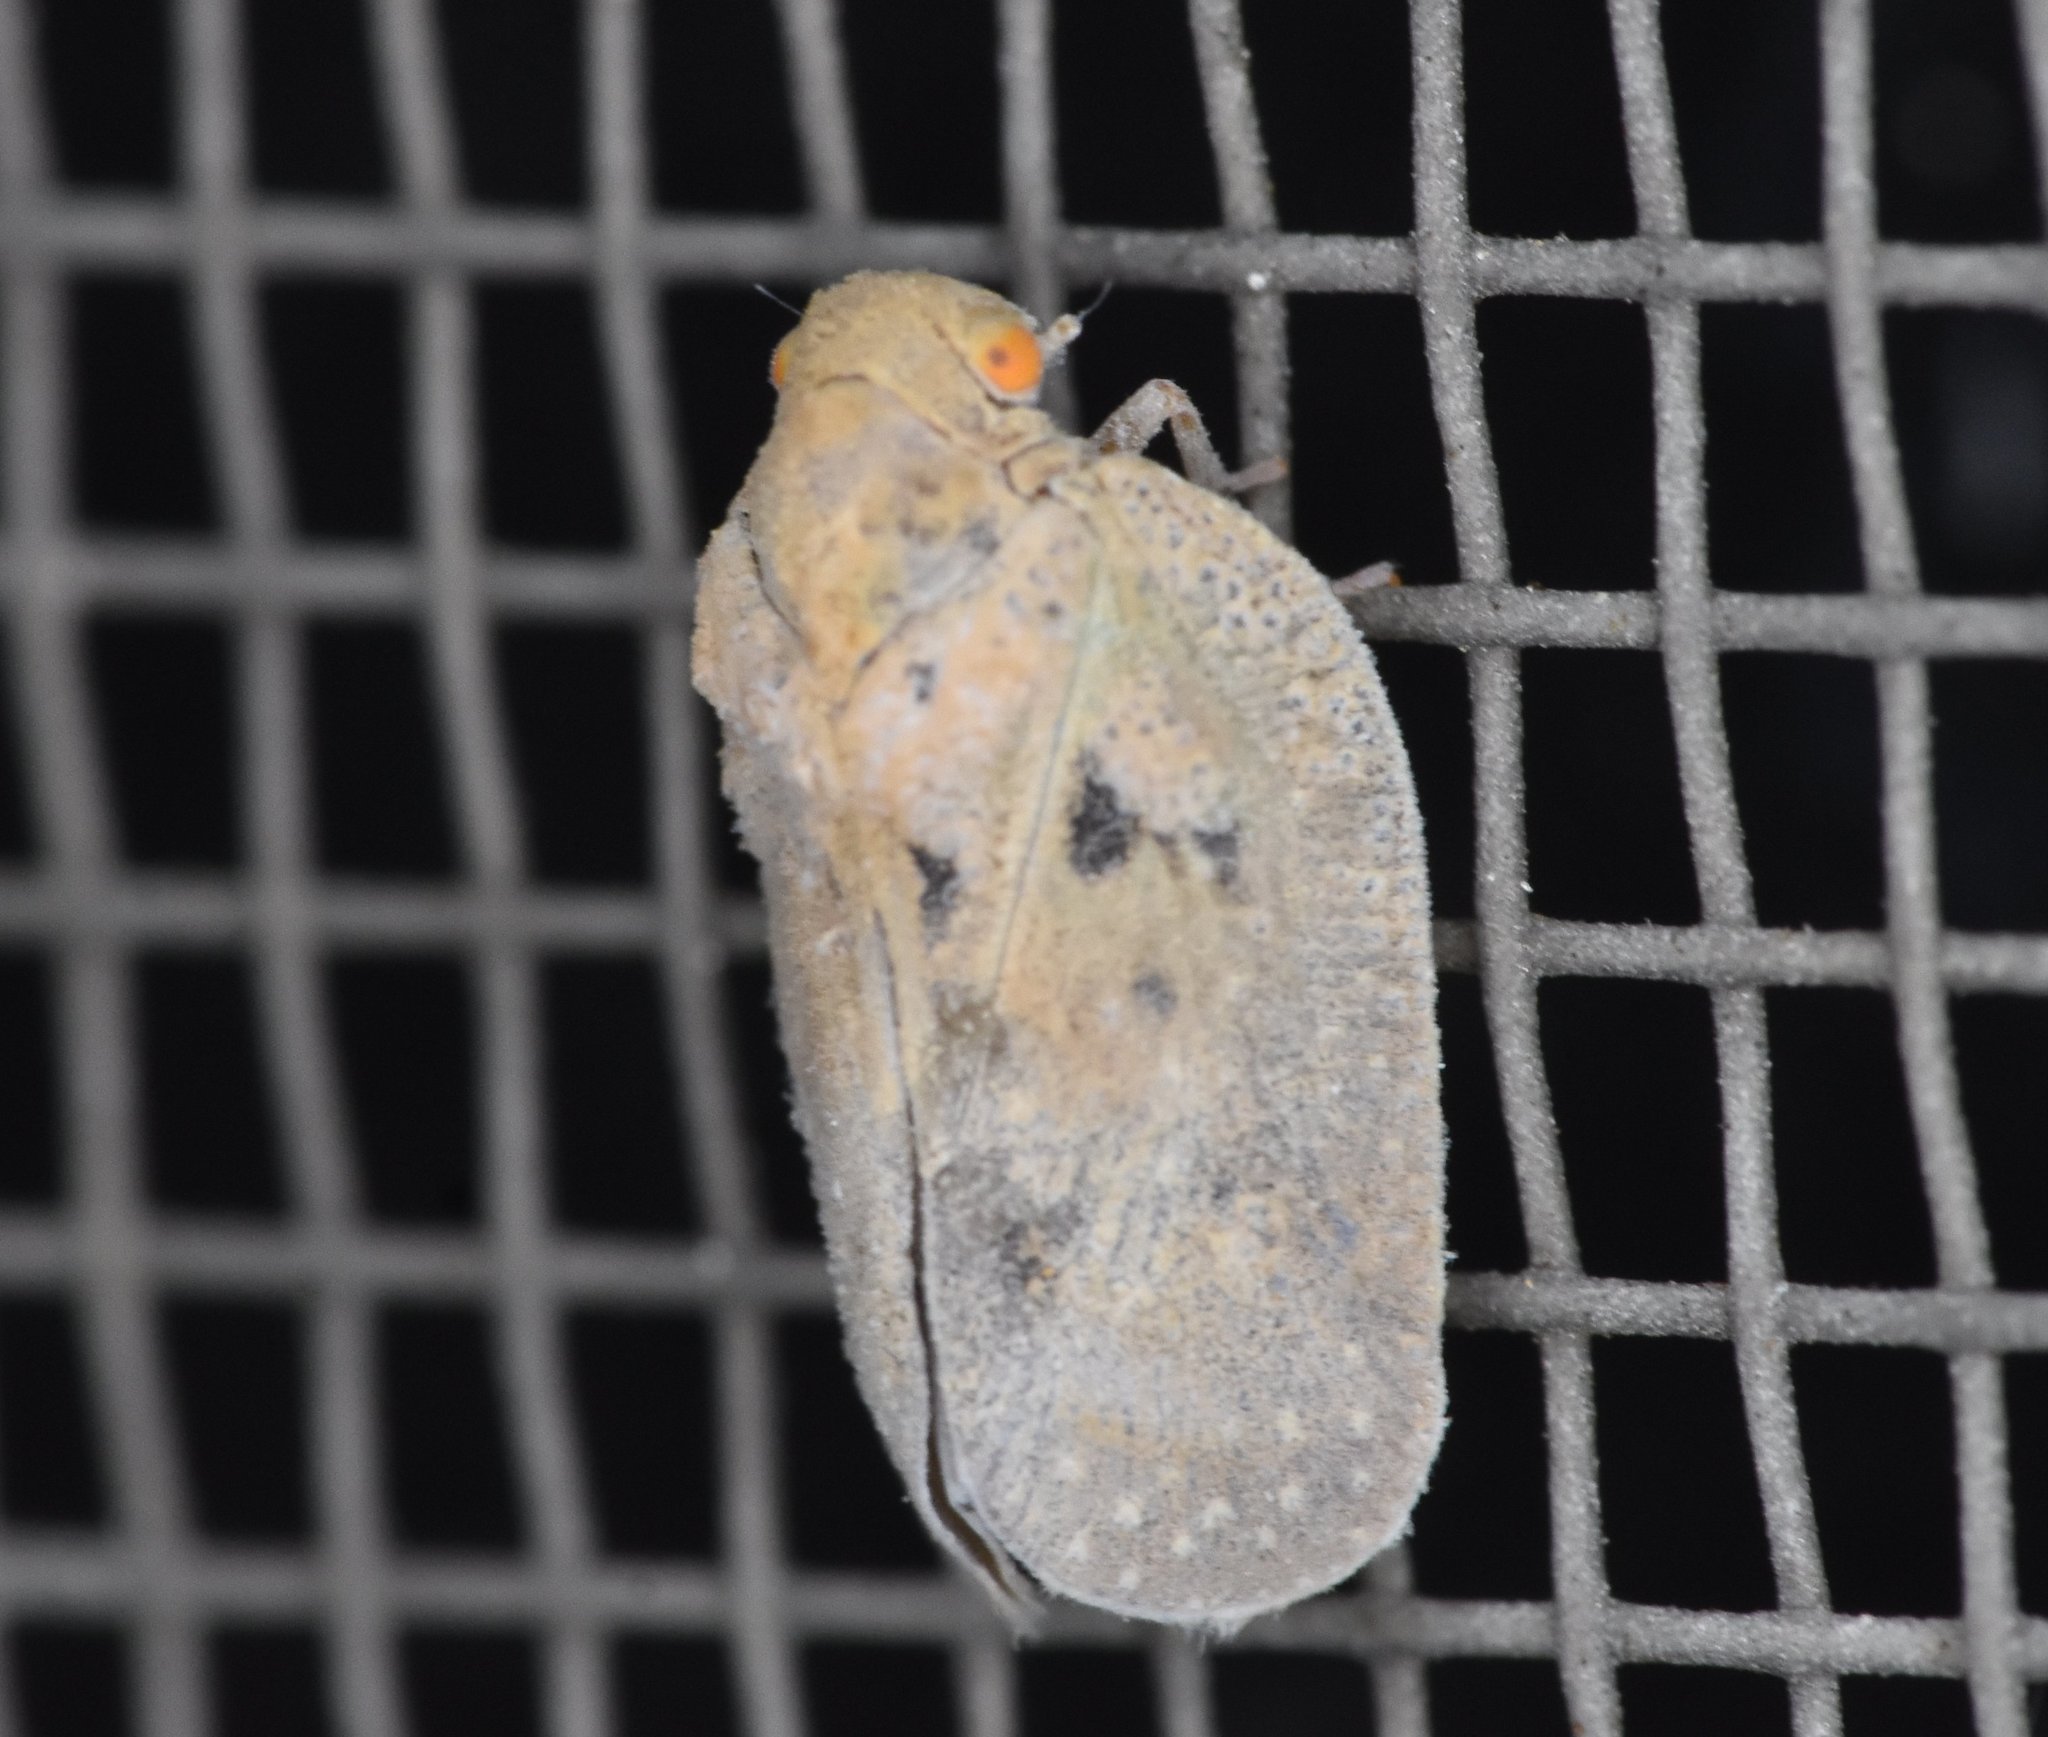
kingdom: Animalia
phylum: Arthropoda
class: Insecta
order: Hemiptera
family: Flatidae
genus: Melormenis
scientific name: Melormenis basalis
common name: Puerto rican planthopper
